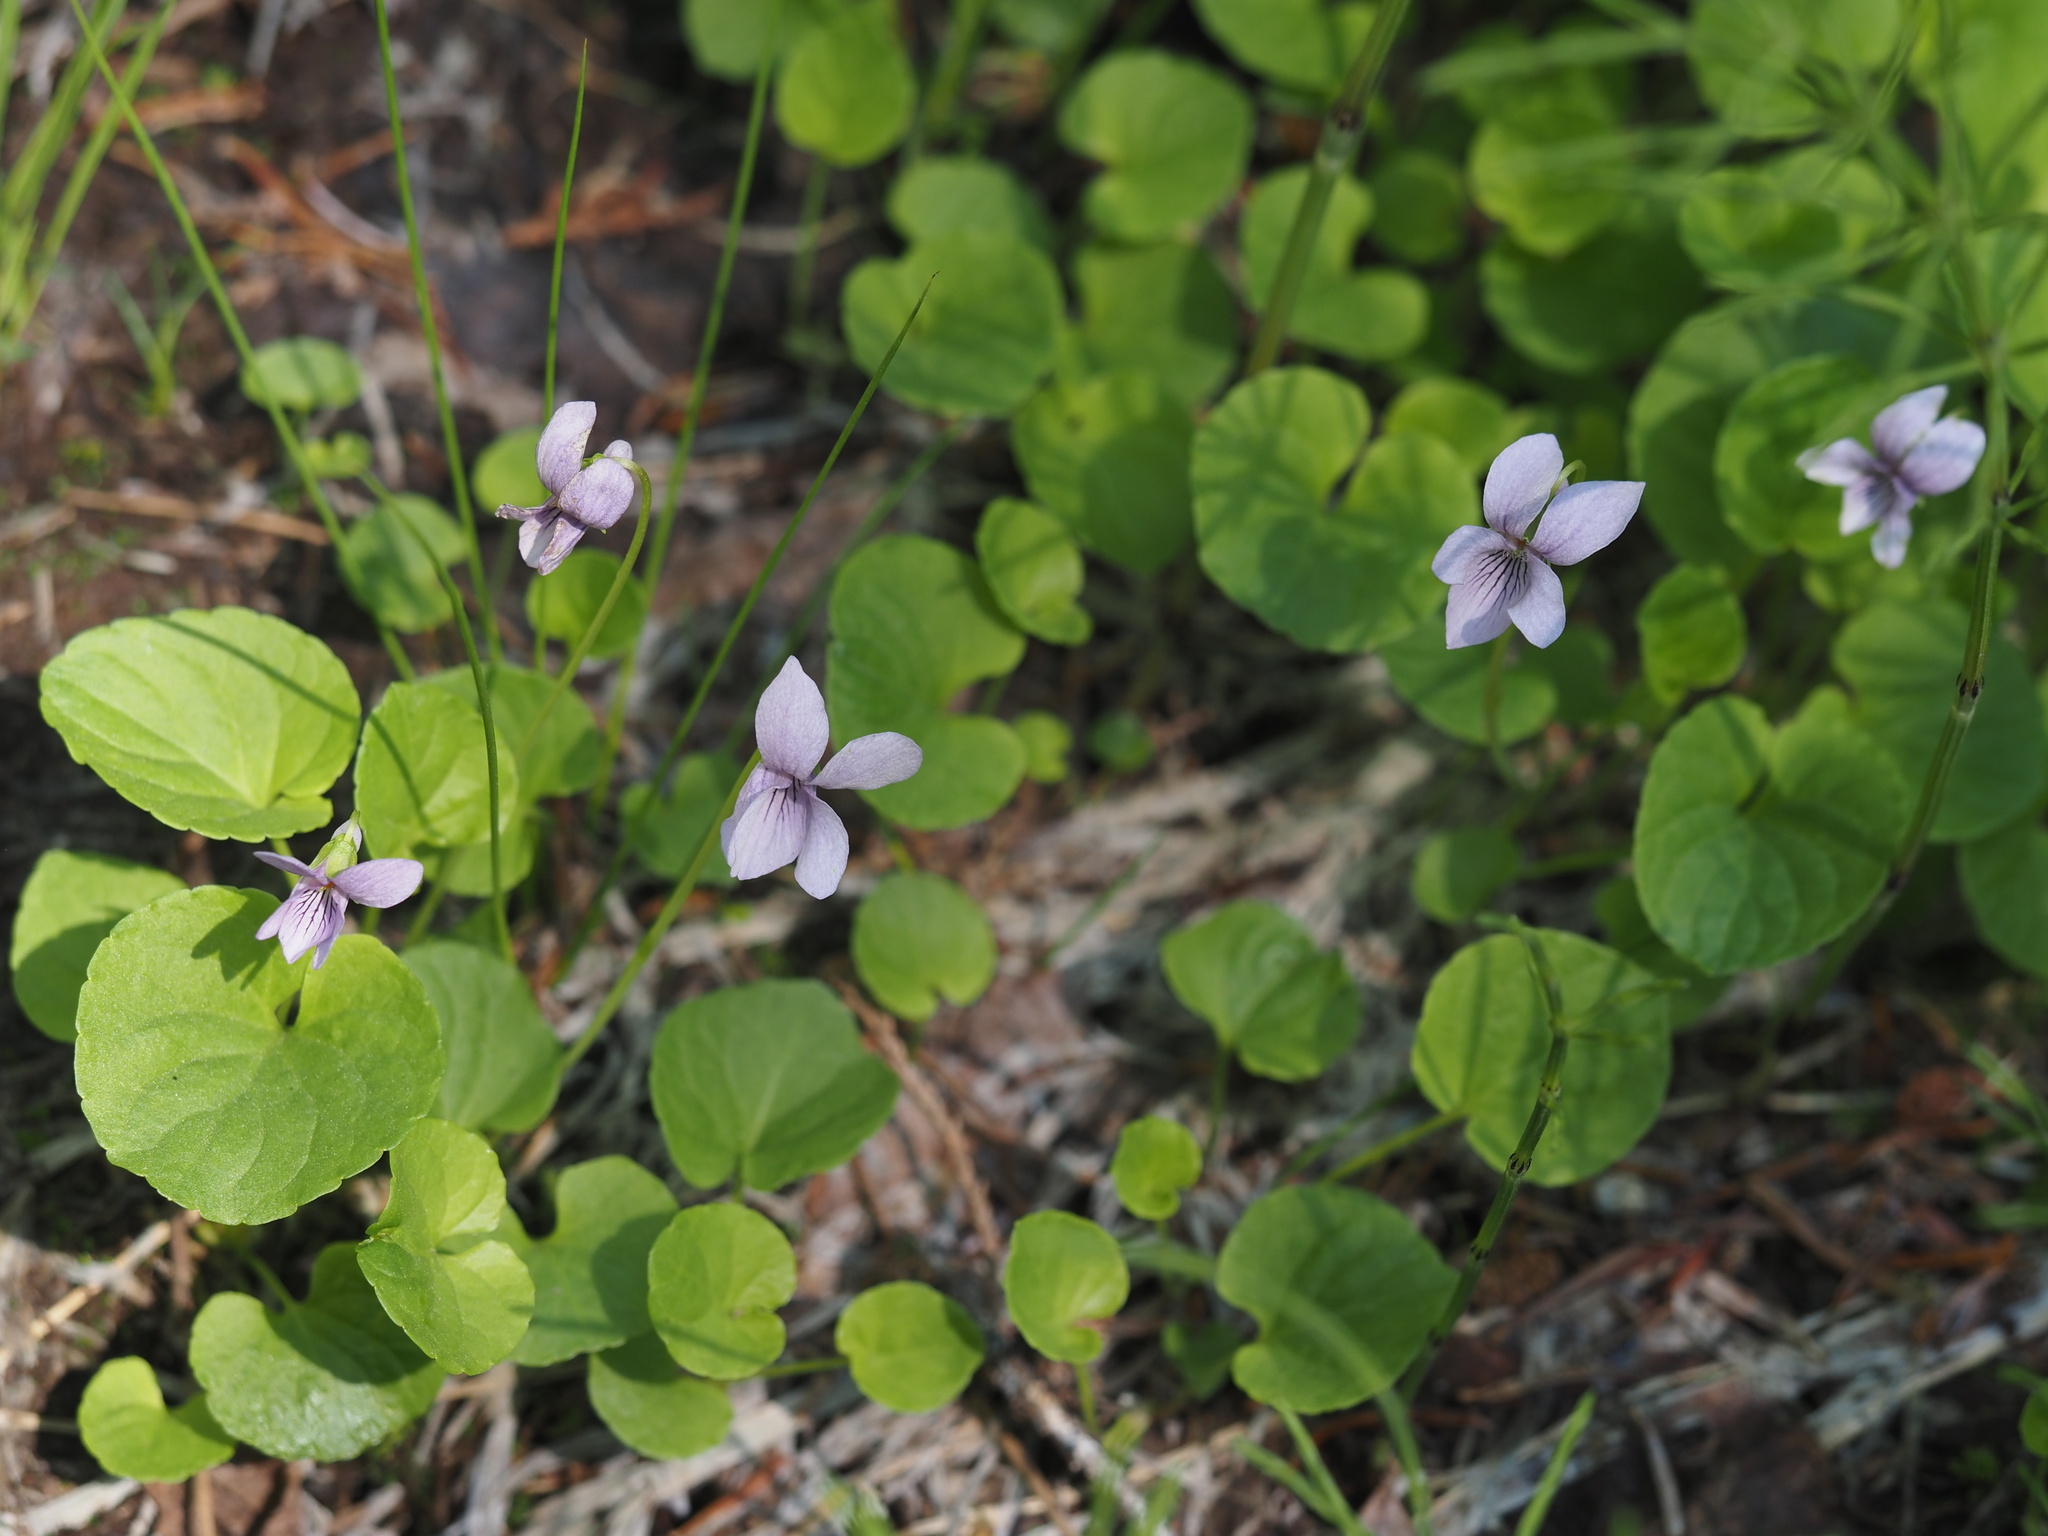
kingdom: Plantae
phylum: Tracheophyta
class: Magnoliopsida
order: Malpighiales
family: Violaceae
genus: Viola
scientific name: Viola palustris
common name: Marsh violet
